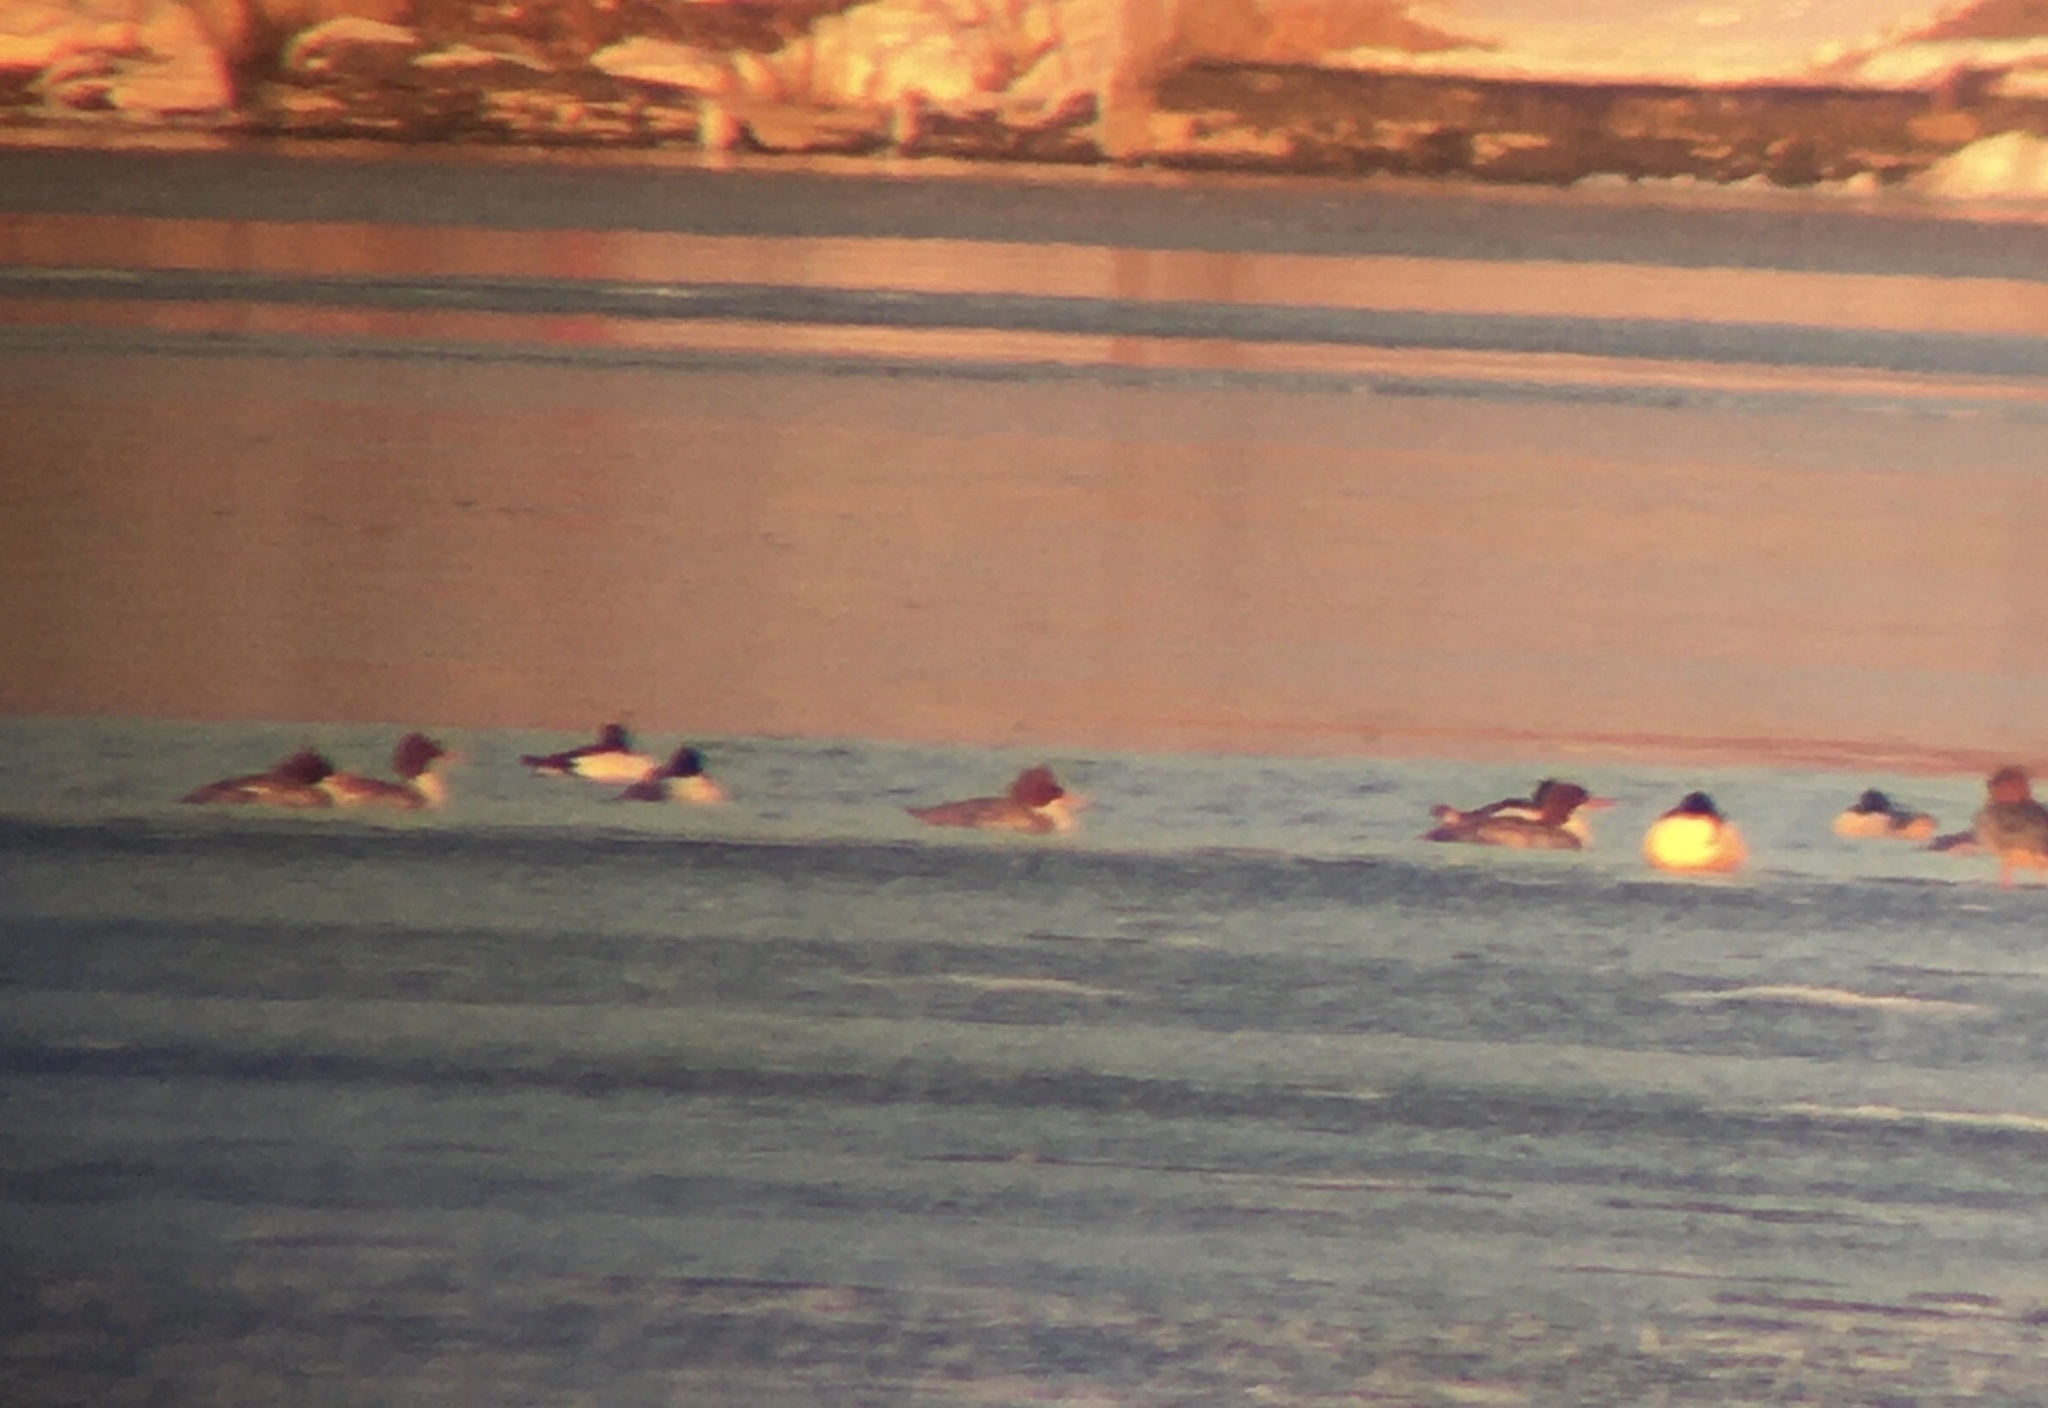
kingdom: Animalia
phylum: Chordata
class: Aves
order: Anseriformes
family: Anatidae
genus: Mergus
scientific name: Mergus merganser
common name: Common merganser
